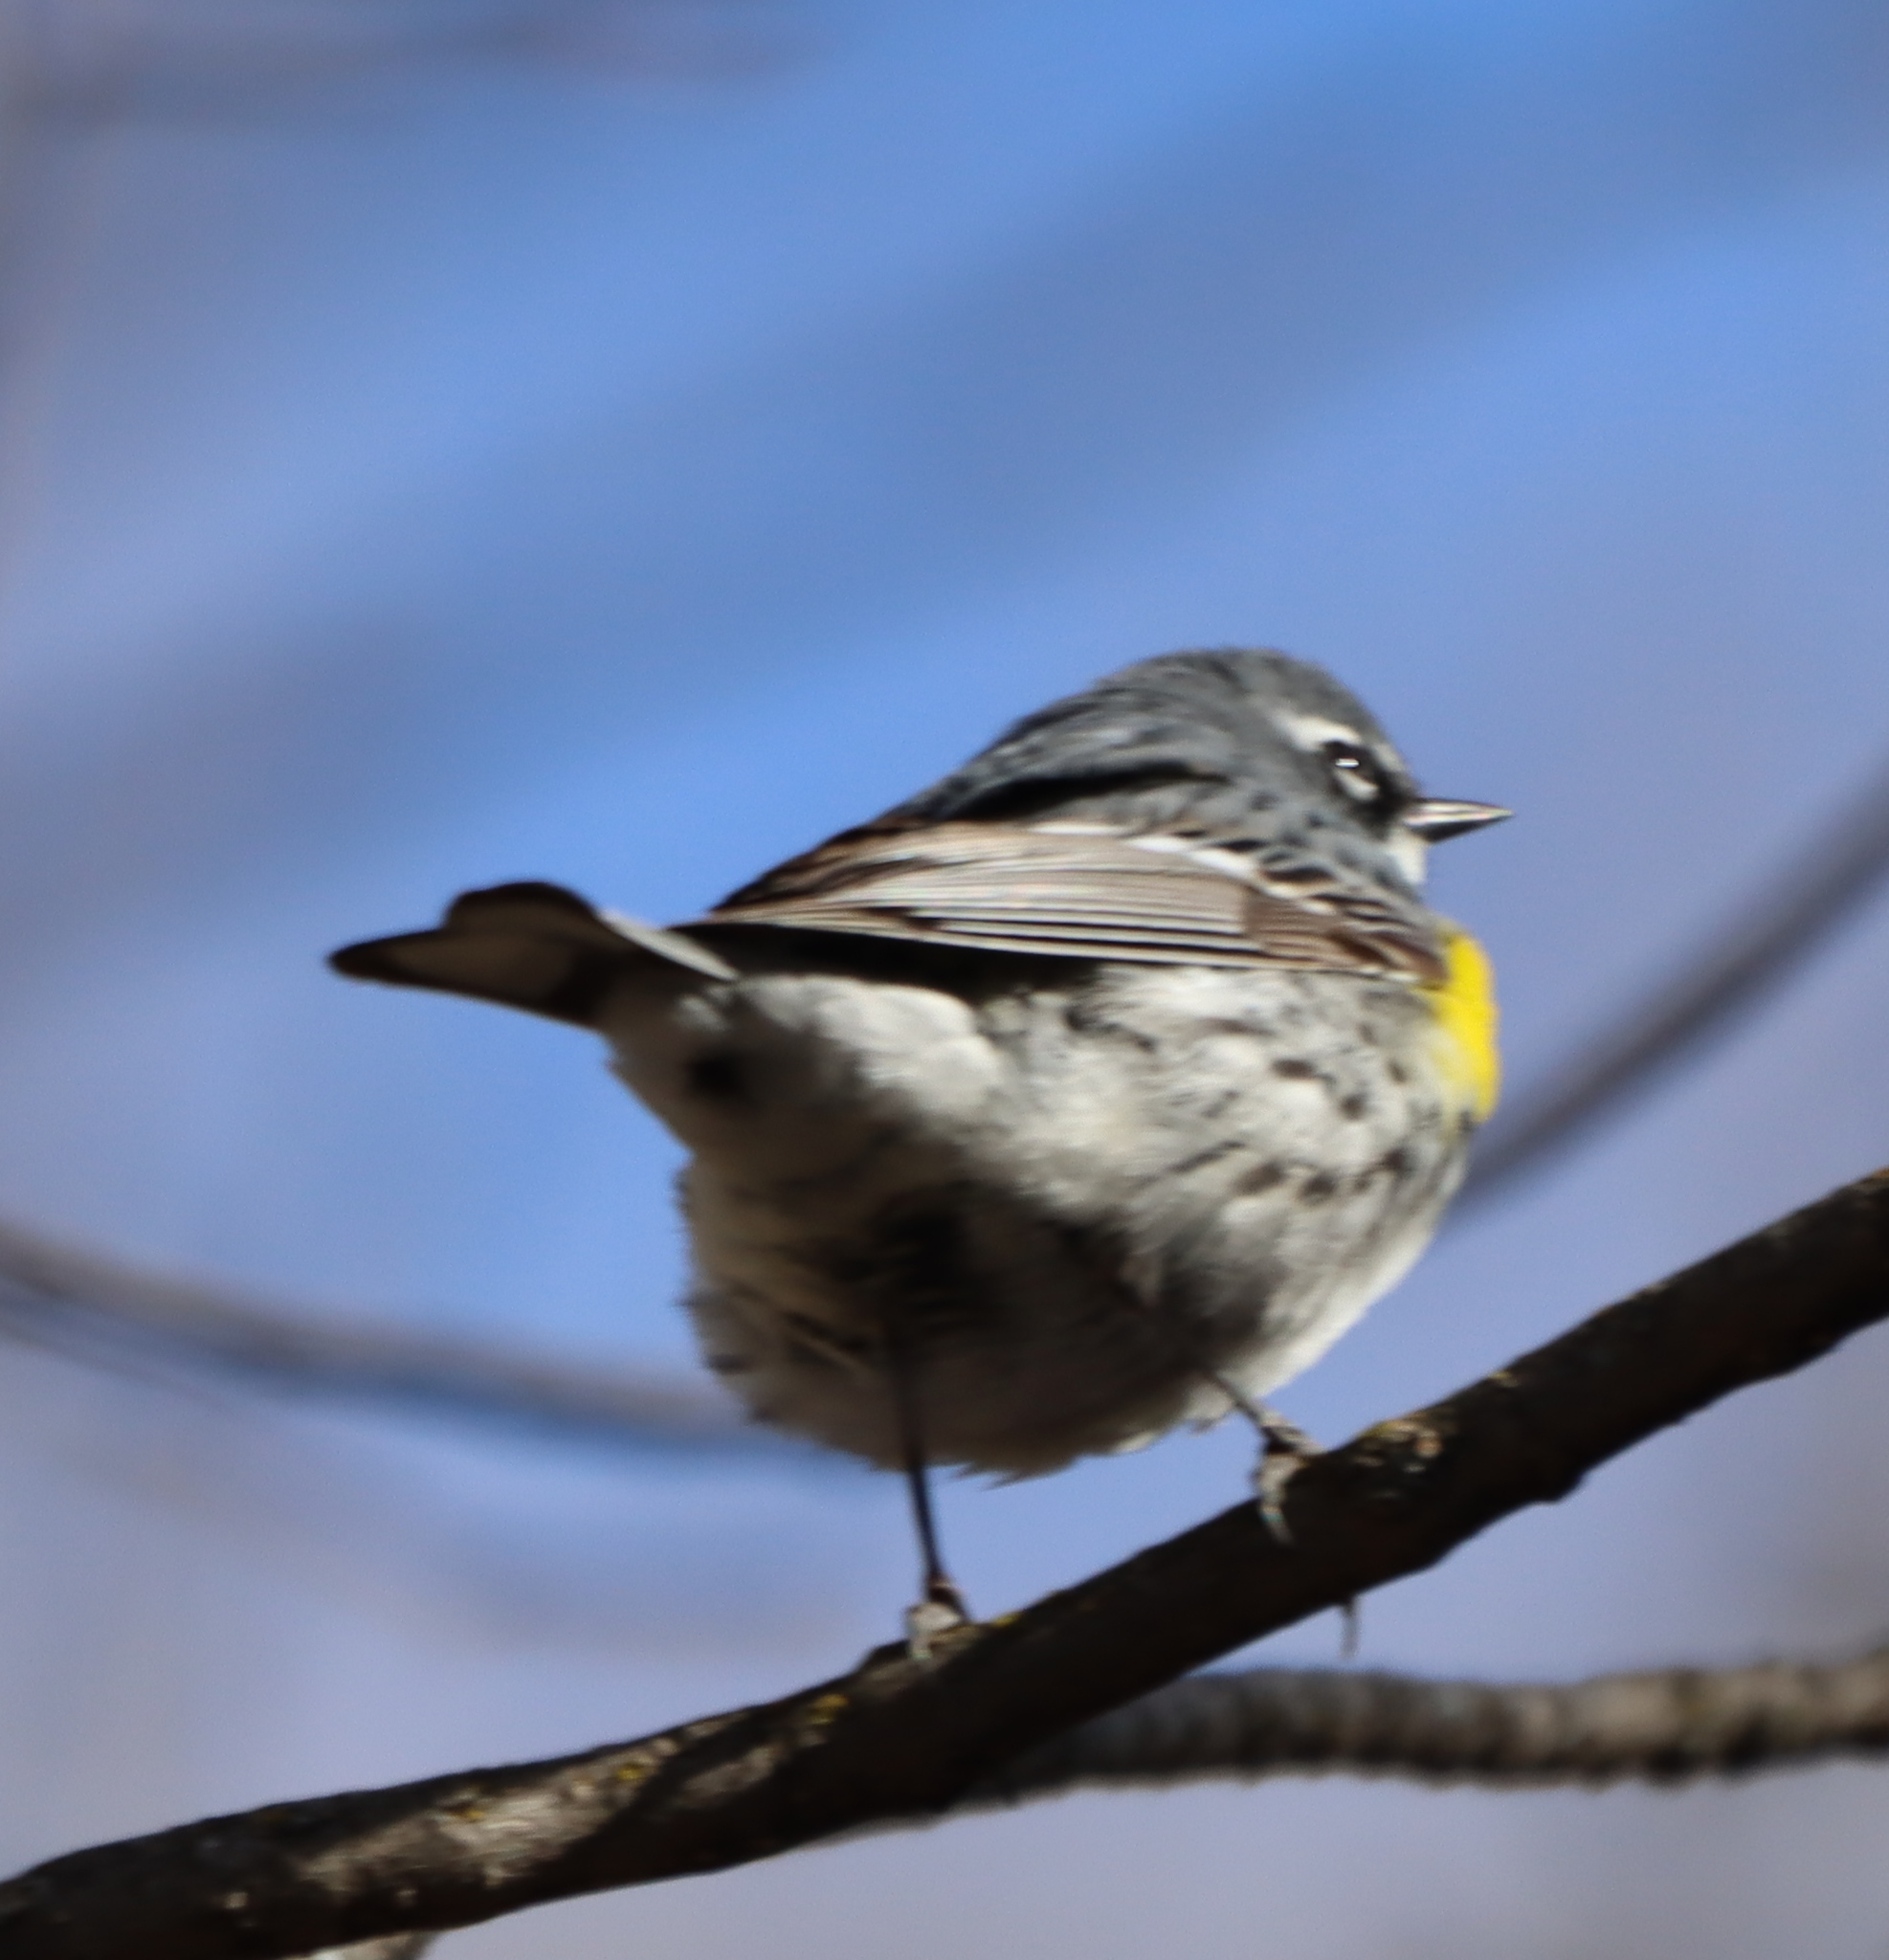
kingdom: Animalia
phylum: Chordata
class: Aves
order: Passeriformes
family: Parulidae
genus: Setophaga
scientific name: Setophaga coronata
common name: Myrtle warbler
